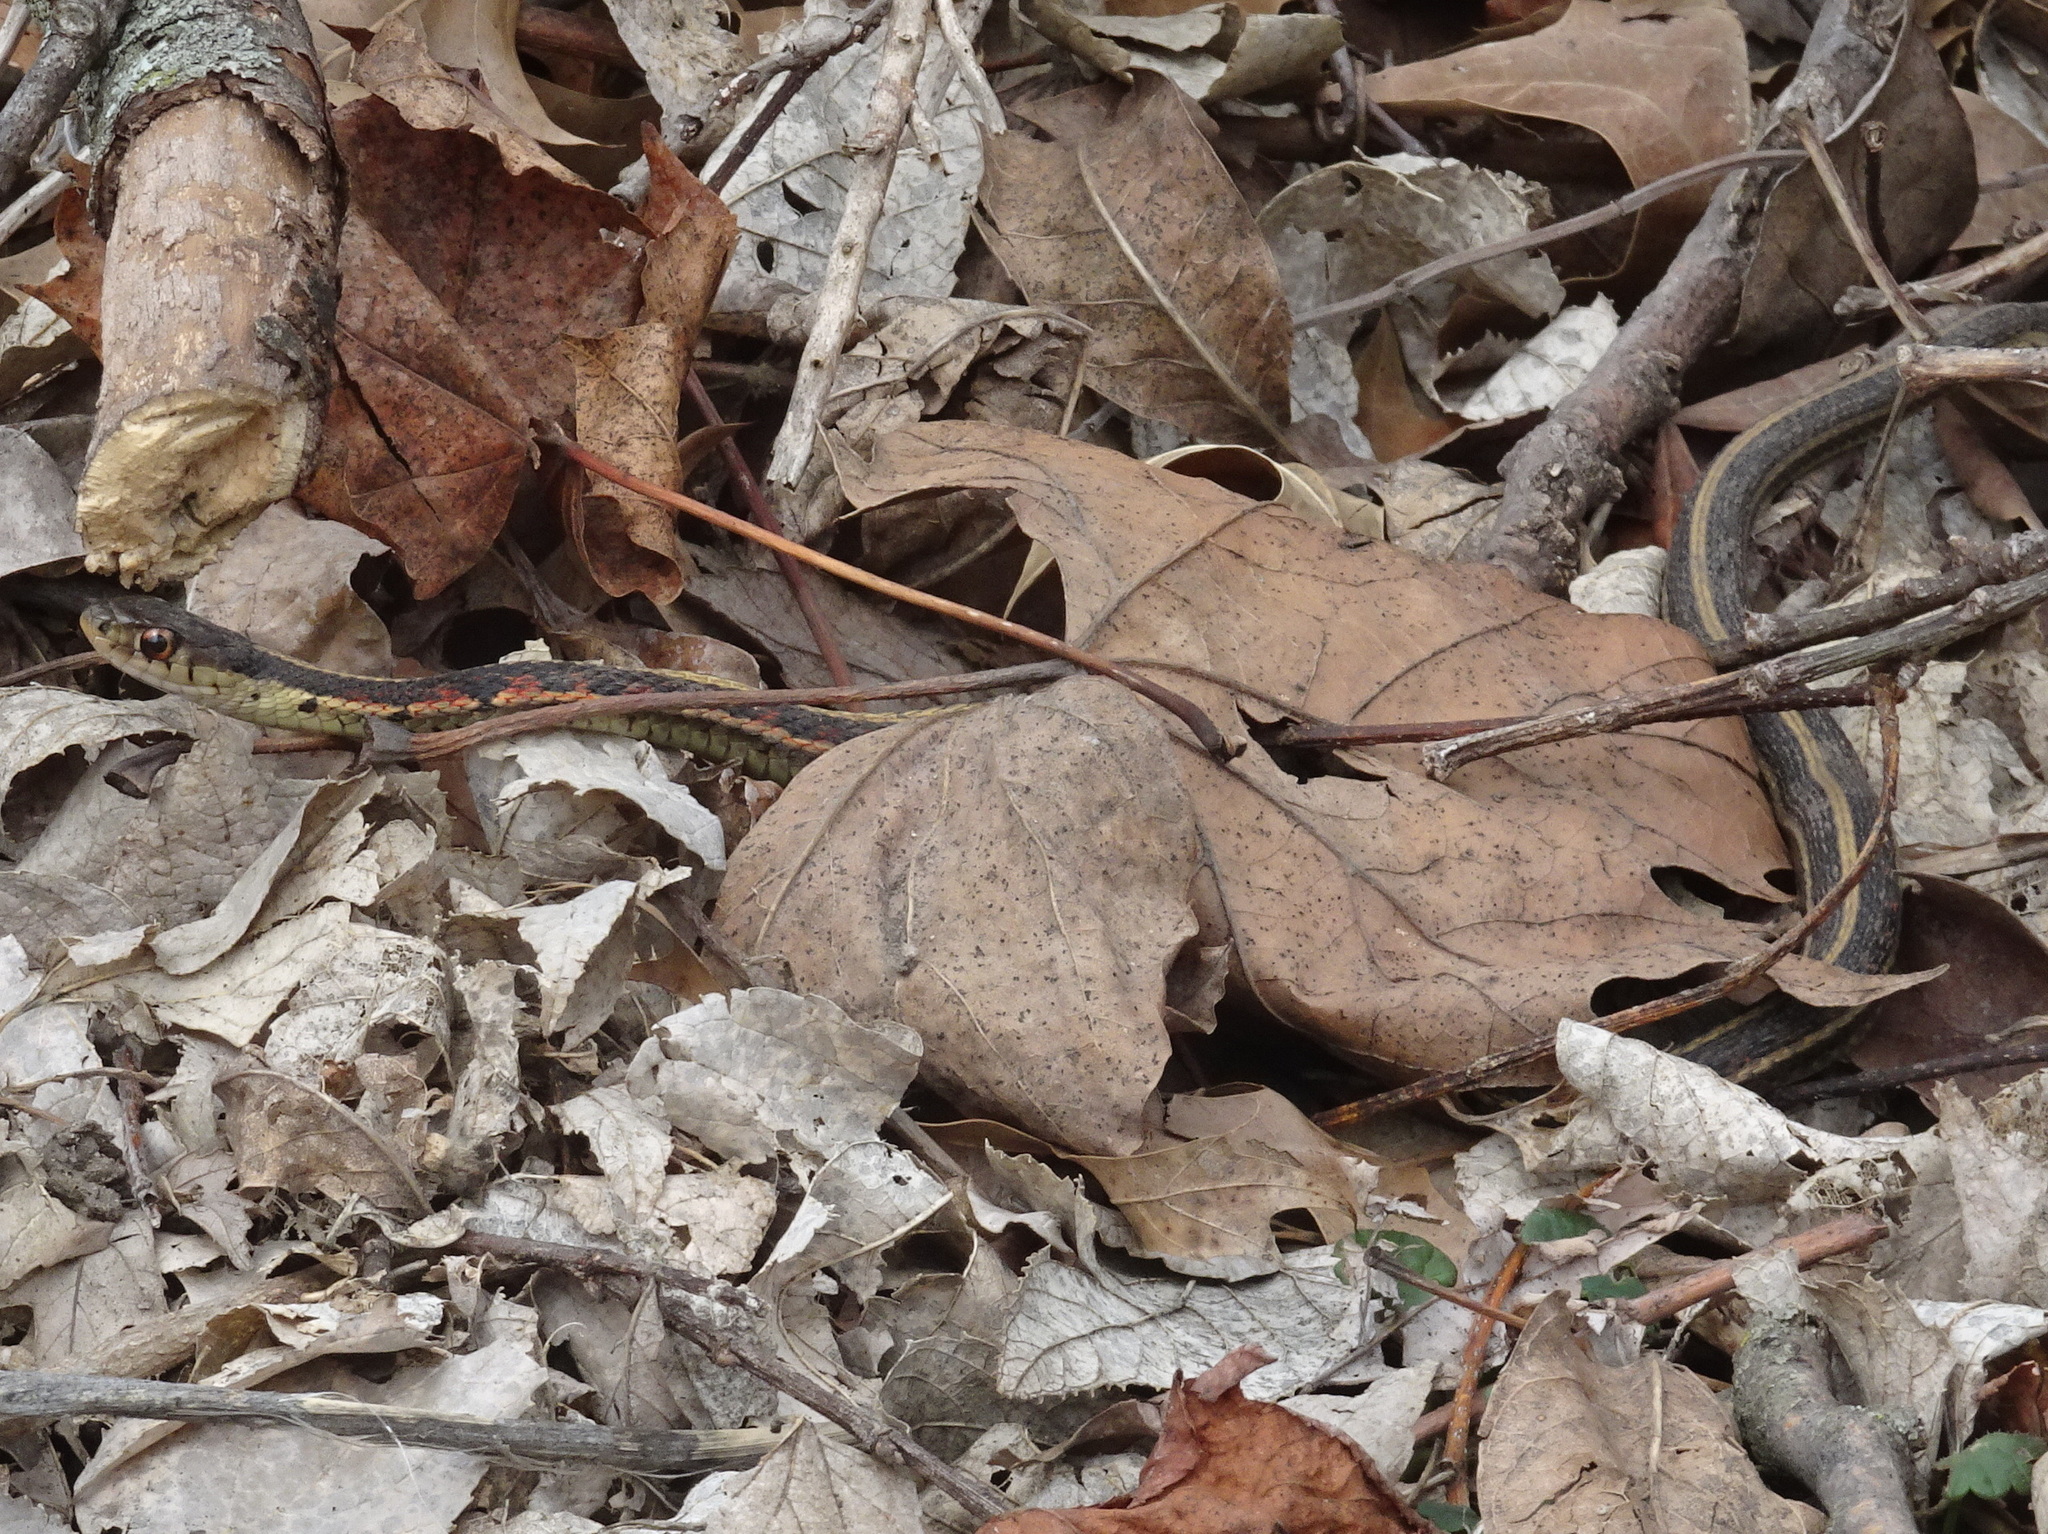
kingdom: Animalia
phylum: Chordata
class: Squamata
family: Colubridae
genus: Thamnophis
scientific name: Thamnophis sirtalis
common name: Common garter snake
